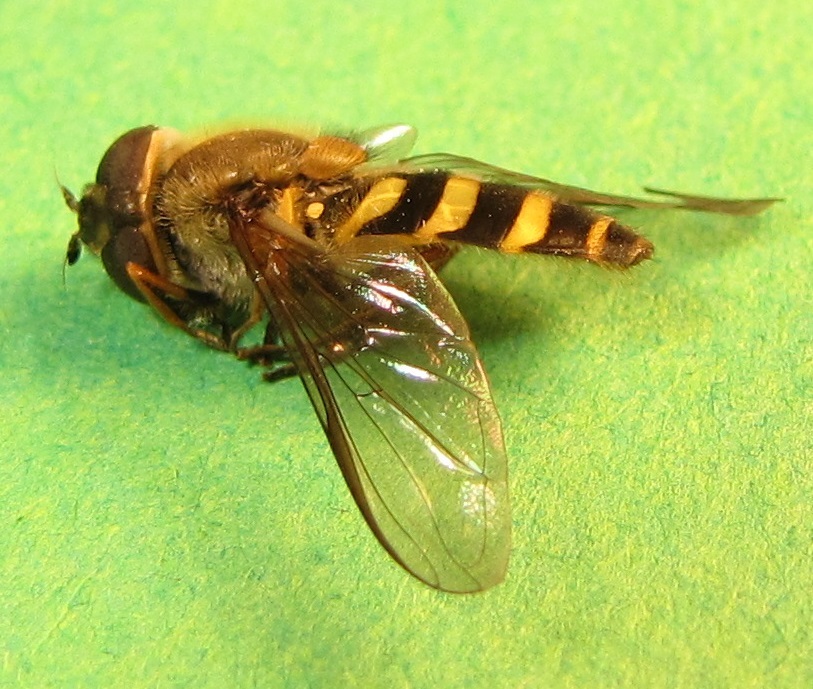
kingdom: Animalia
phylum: Arthropoda
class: Insecta
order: Diptera
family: Syrphidae
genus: Syrphus
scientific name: Syrphus
